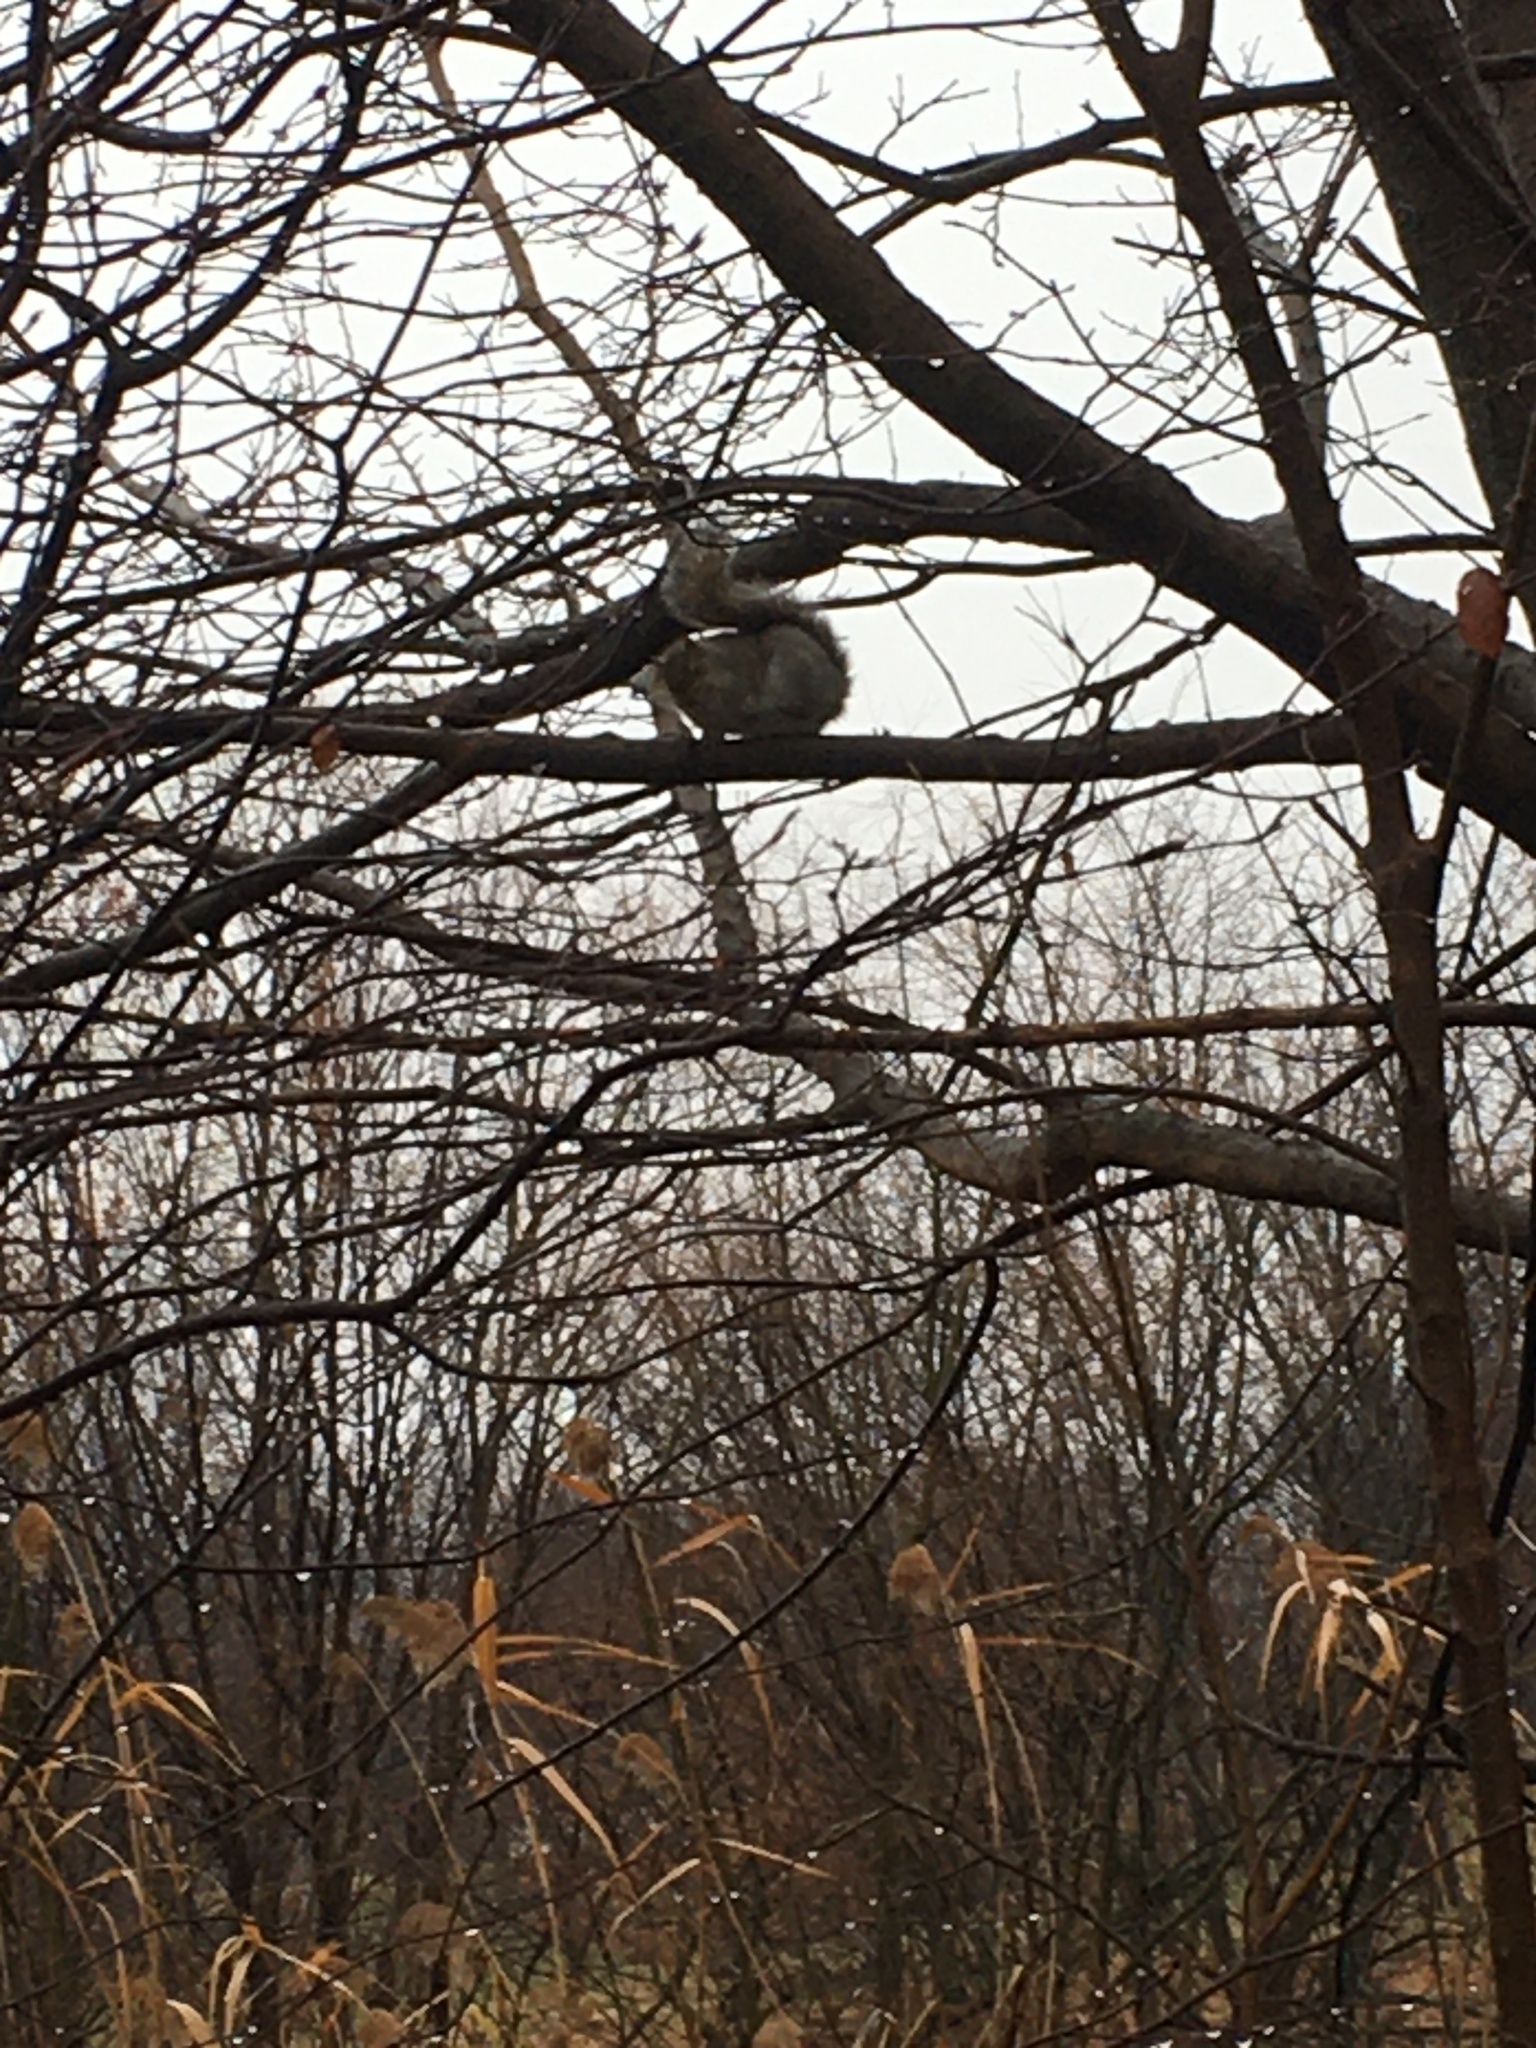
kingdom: Animalia
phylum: Chordata
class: Mammalia
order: Rodentia
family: Sciuridae
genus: Sciurus
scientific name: Sciurus carolinensis
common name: Eastern gray squirrel
